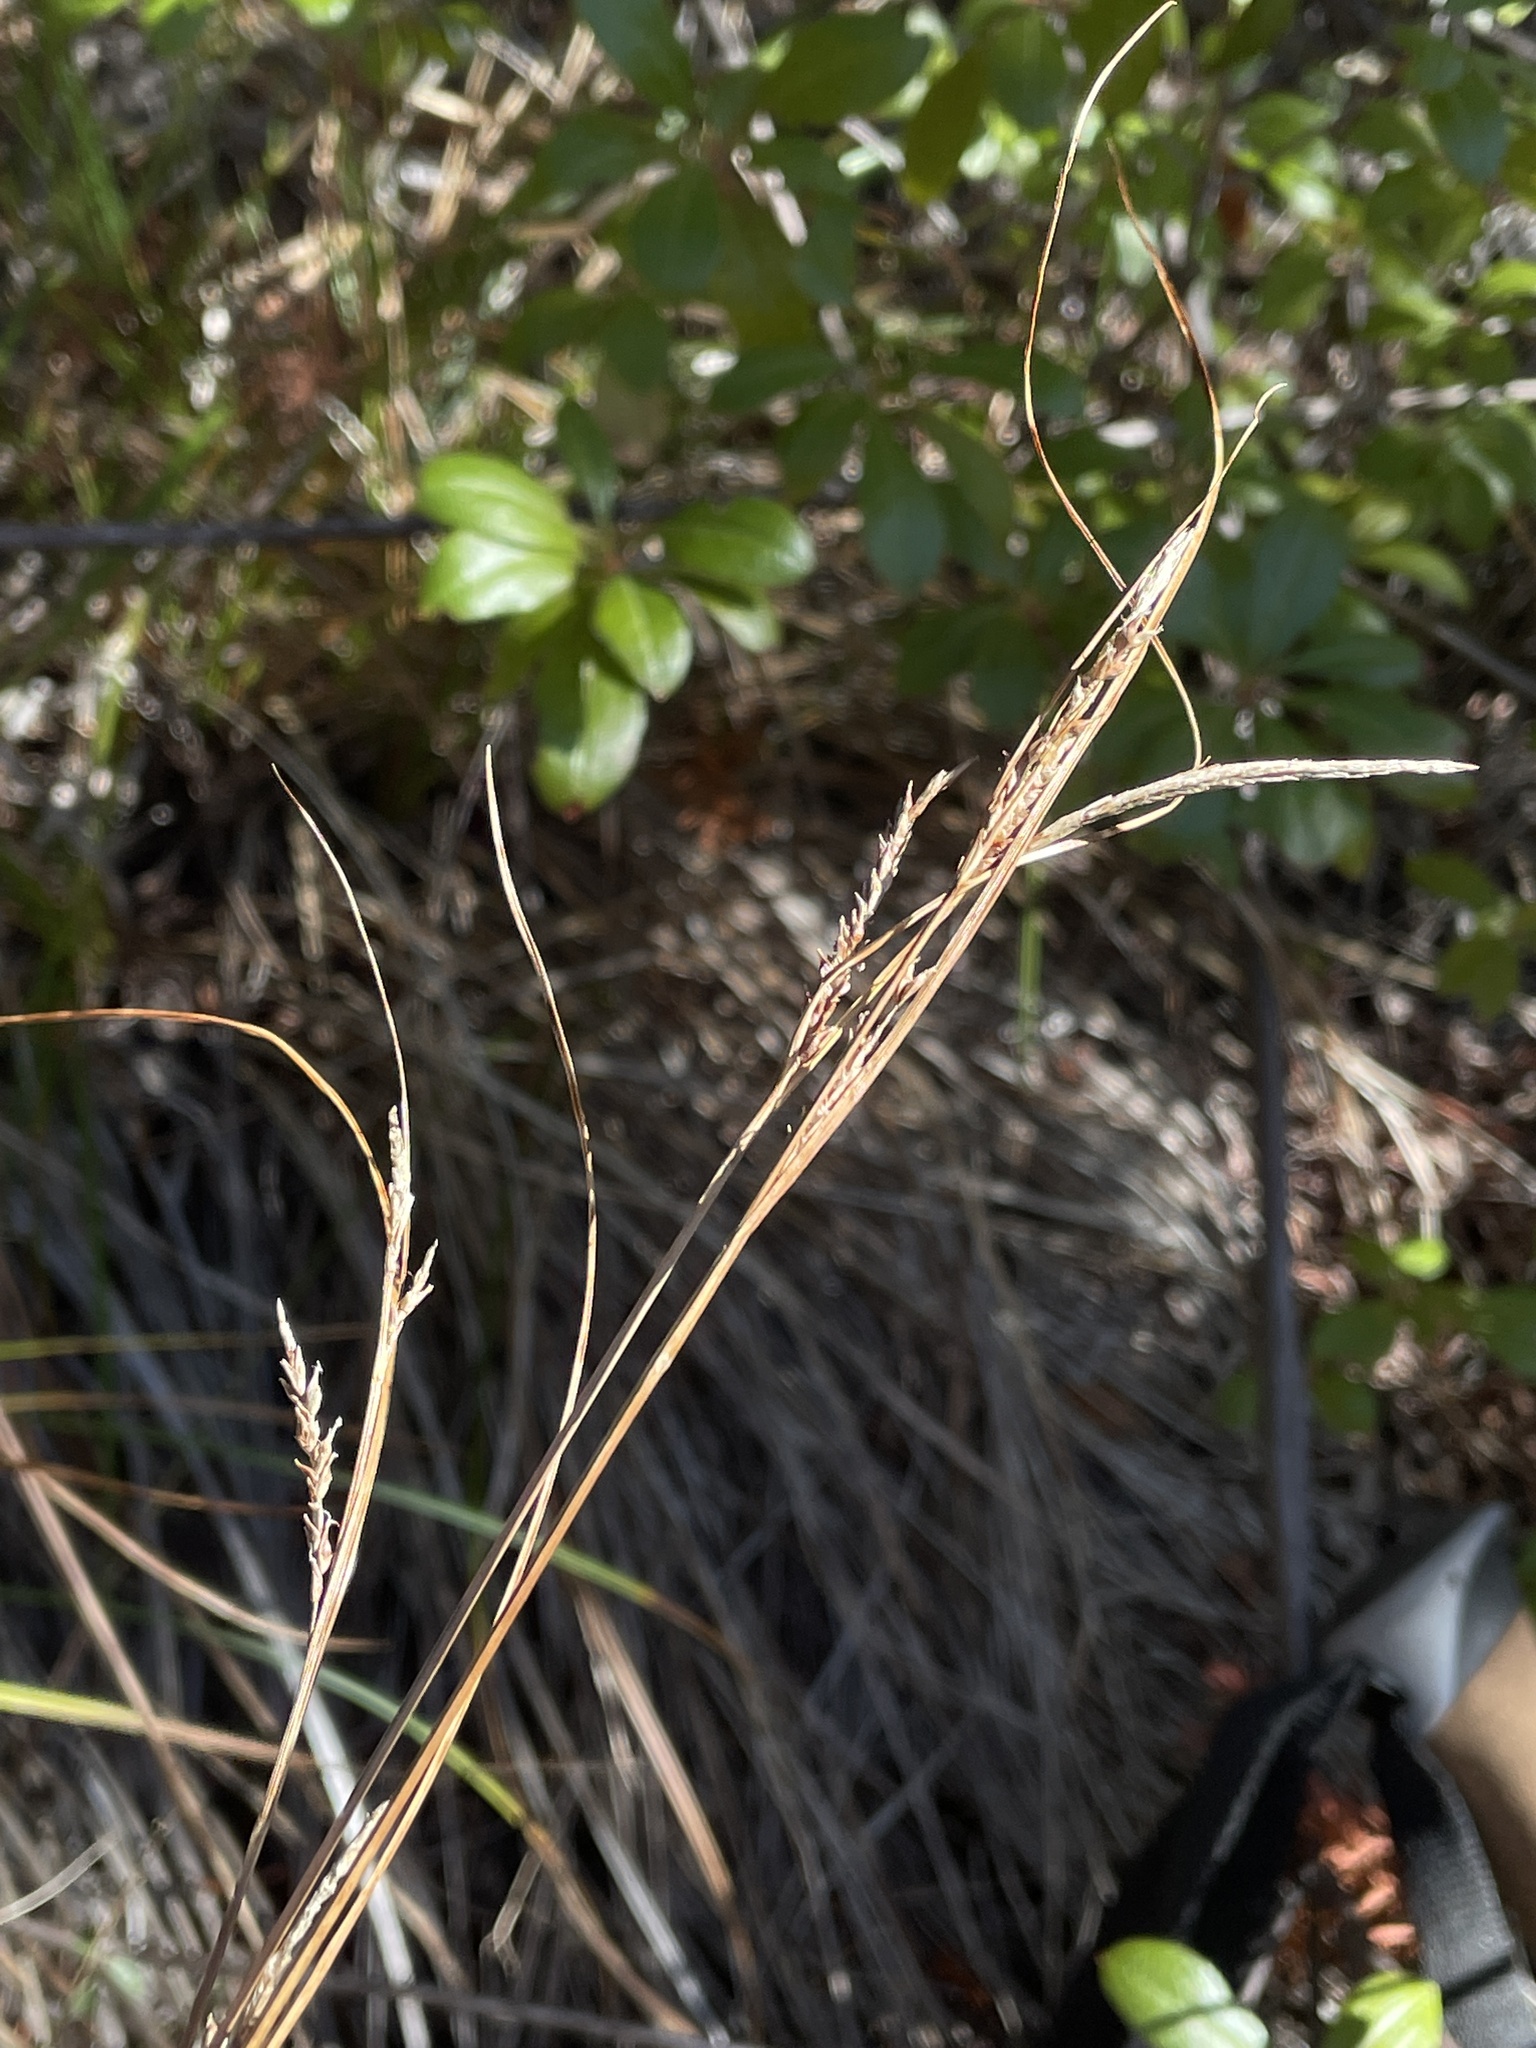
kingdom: Plantae
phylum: Tracheophyta
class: Liliopsida
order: Poales
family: Cyperaceae
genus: Carex
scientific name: Carex mendocinensis
